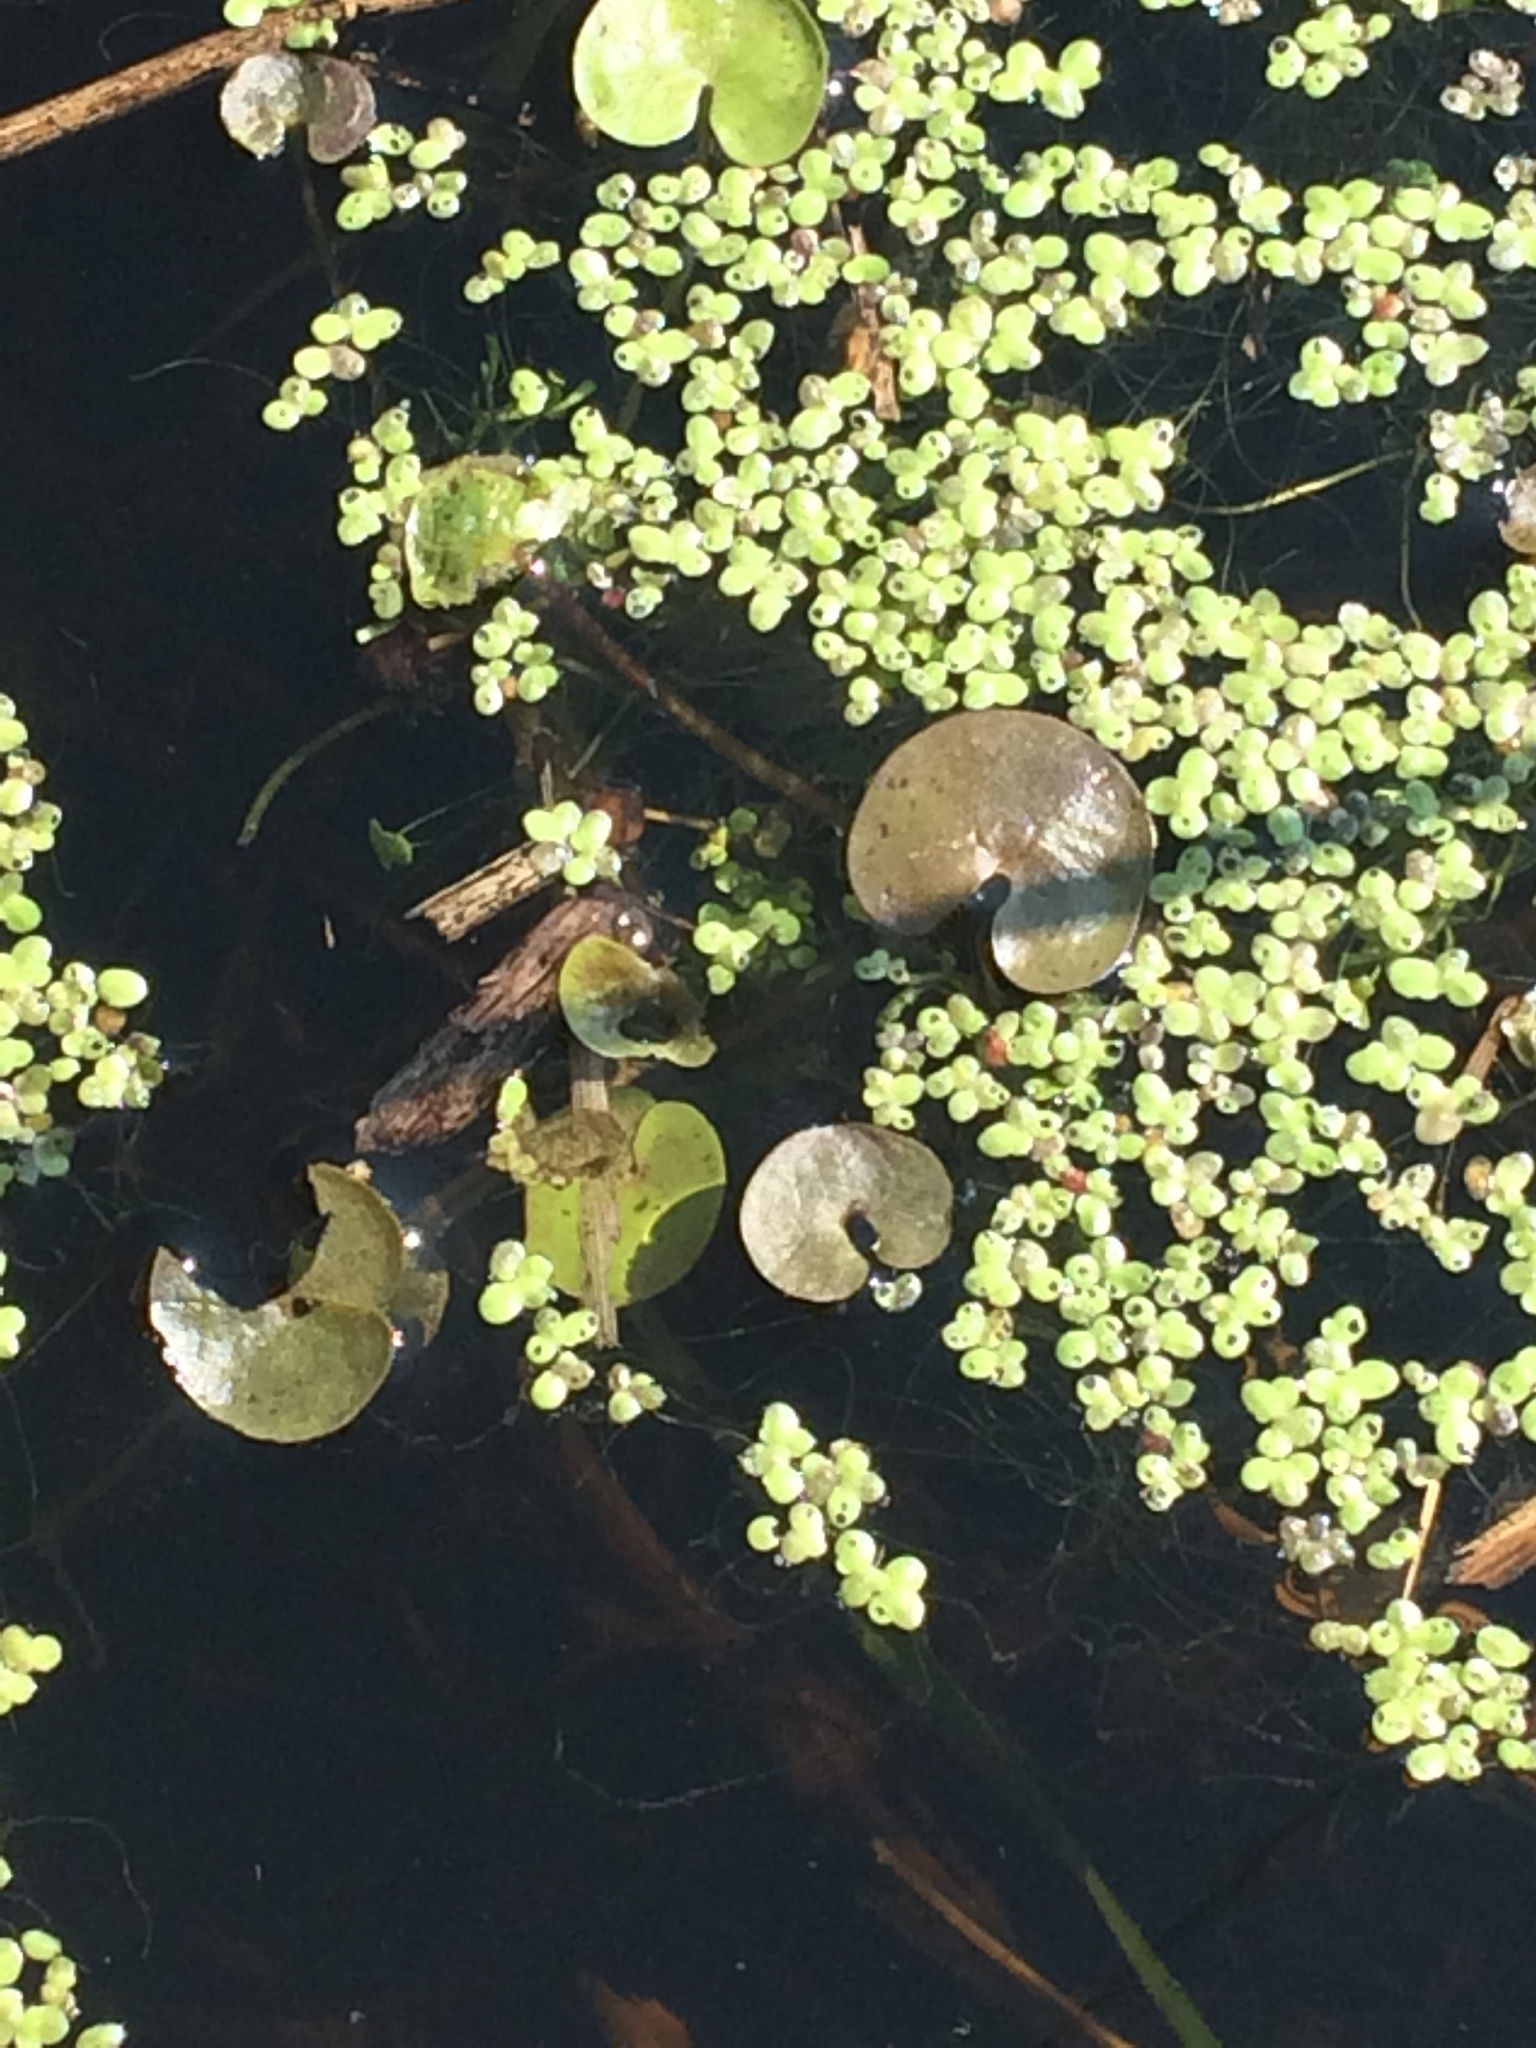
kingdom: Plantae
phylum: Tracheophyta
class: Liliopsida
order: Alismatales
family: Hydrocharitaceae
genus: Hydrocharis
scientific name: Hydrocharis morsus-ranae
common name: Frogbit
